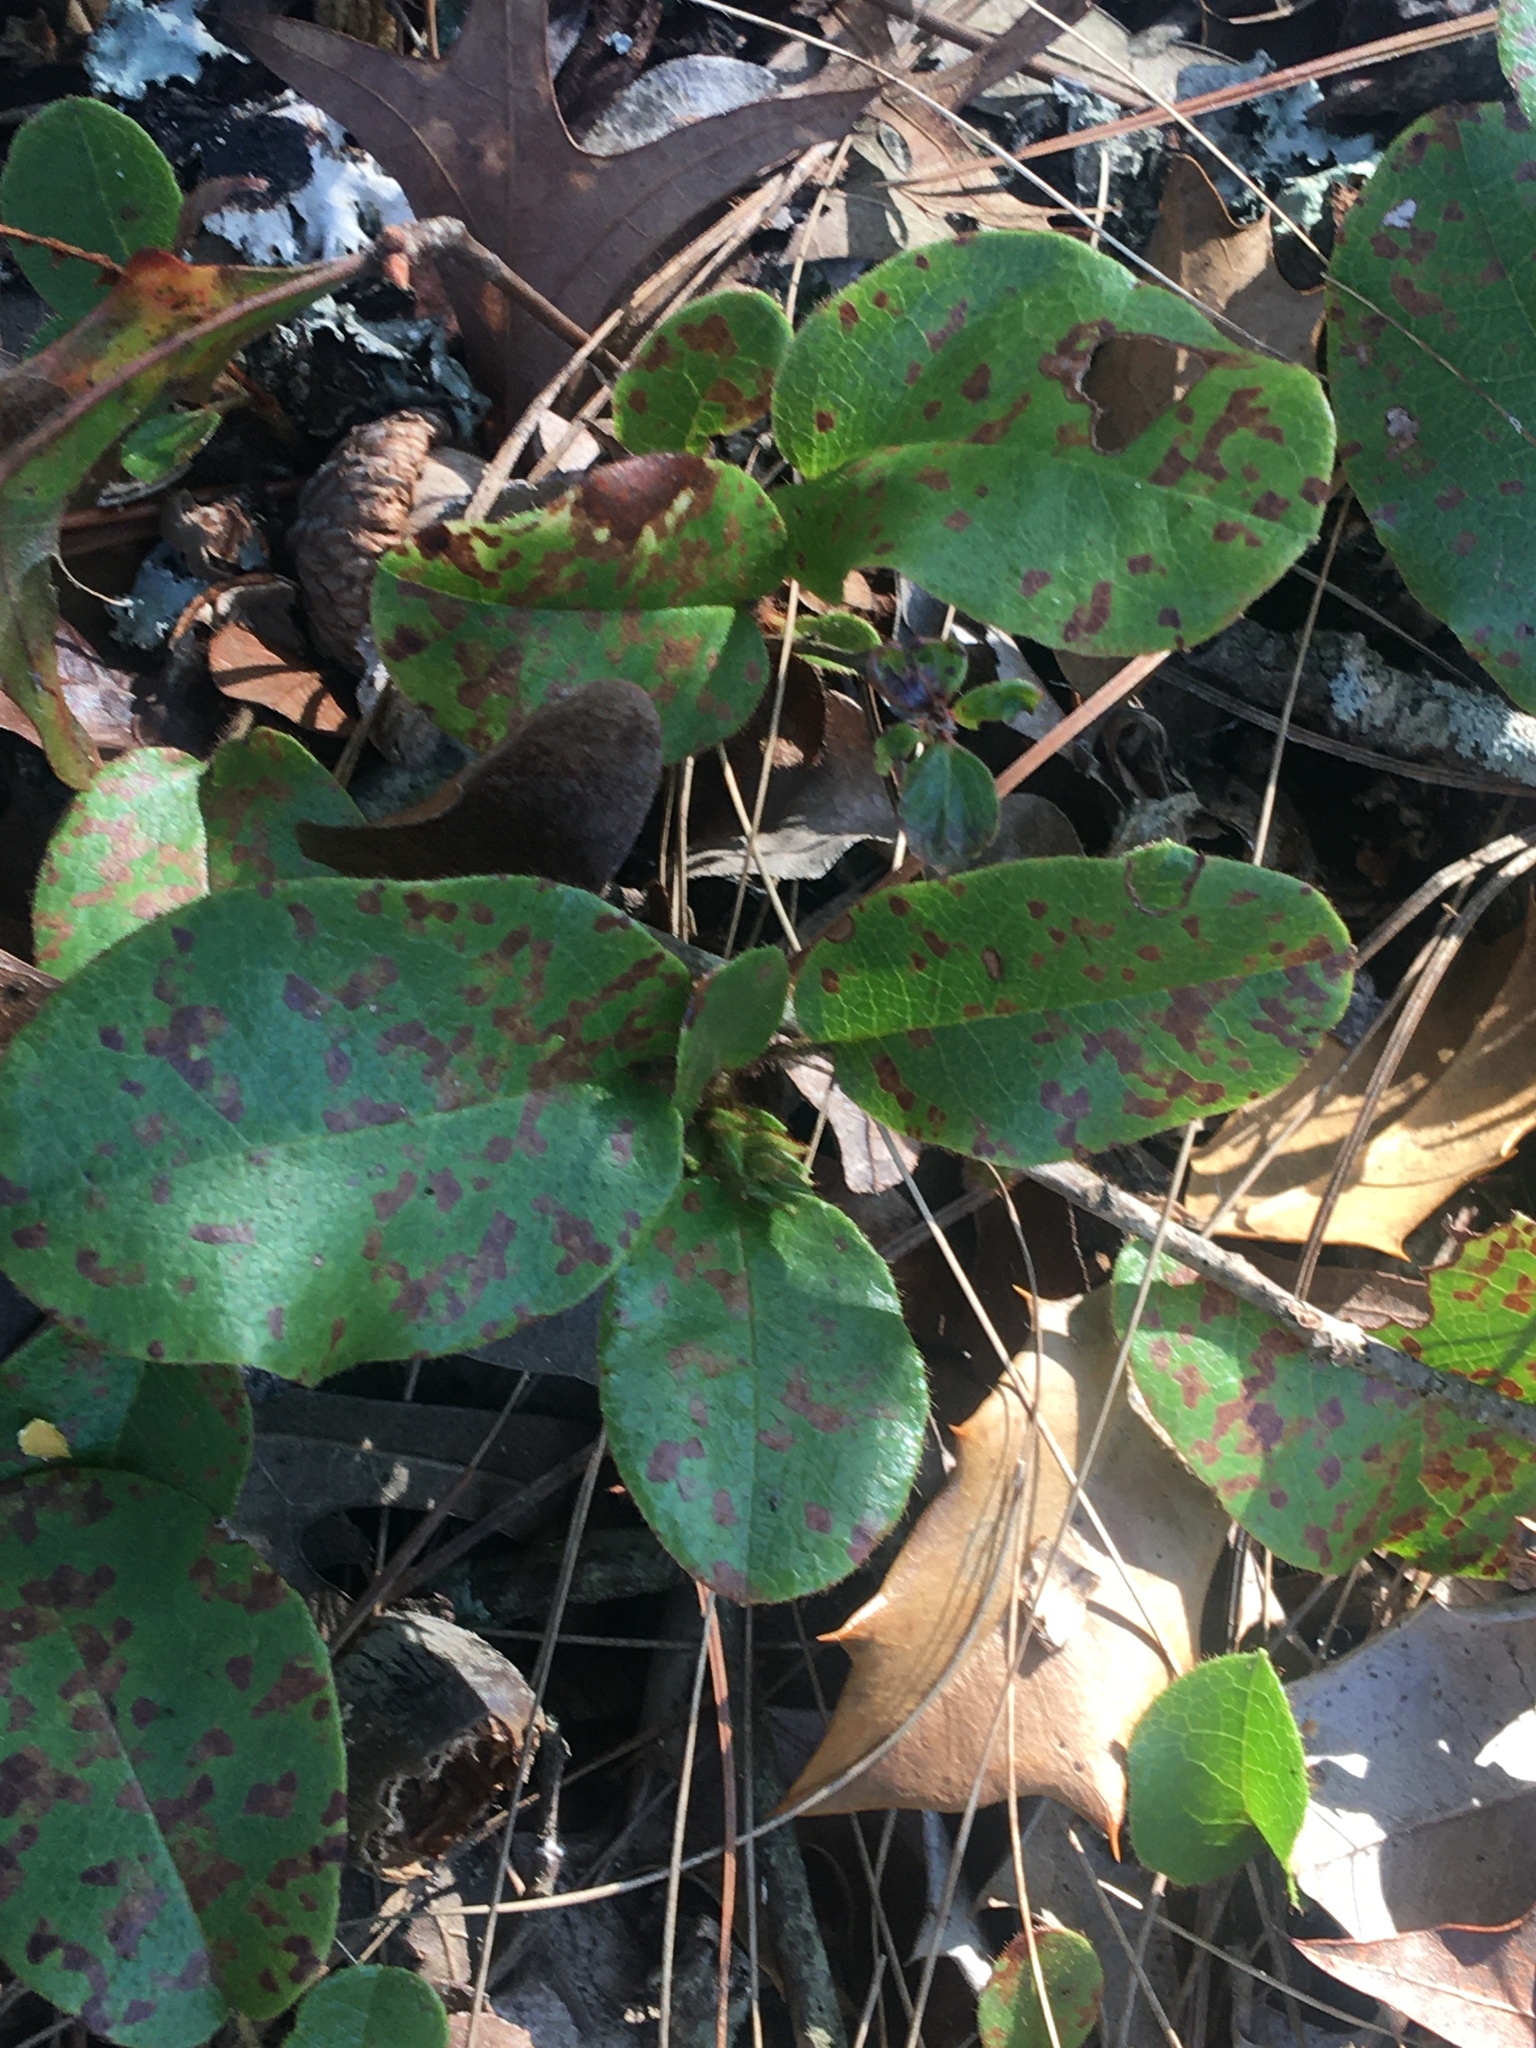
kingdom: Plantae
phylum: Tracheophyta
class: Magnoliopsida
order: Ericales
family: Ericaceae
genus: Epigaea
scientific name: Epigaea repens
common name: Gravelroot
